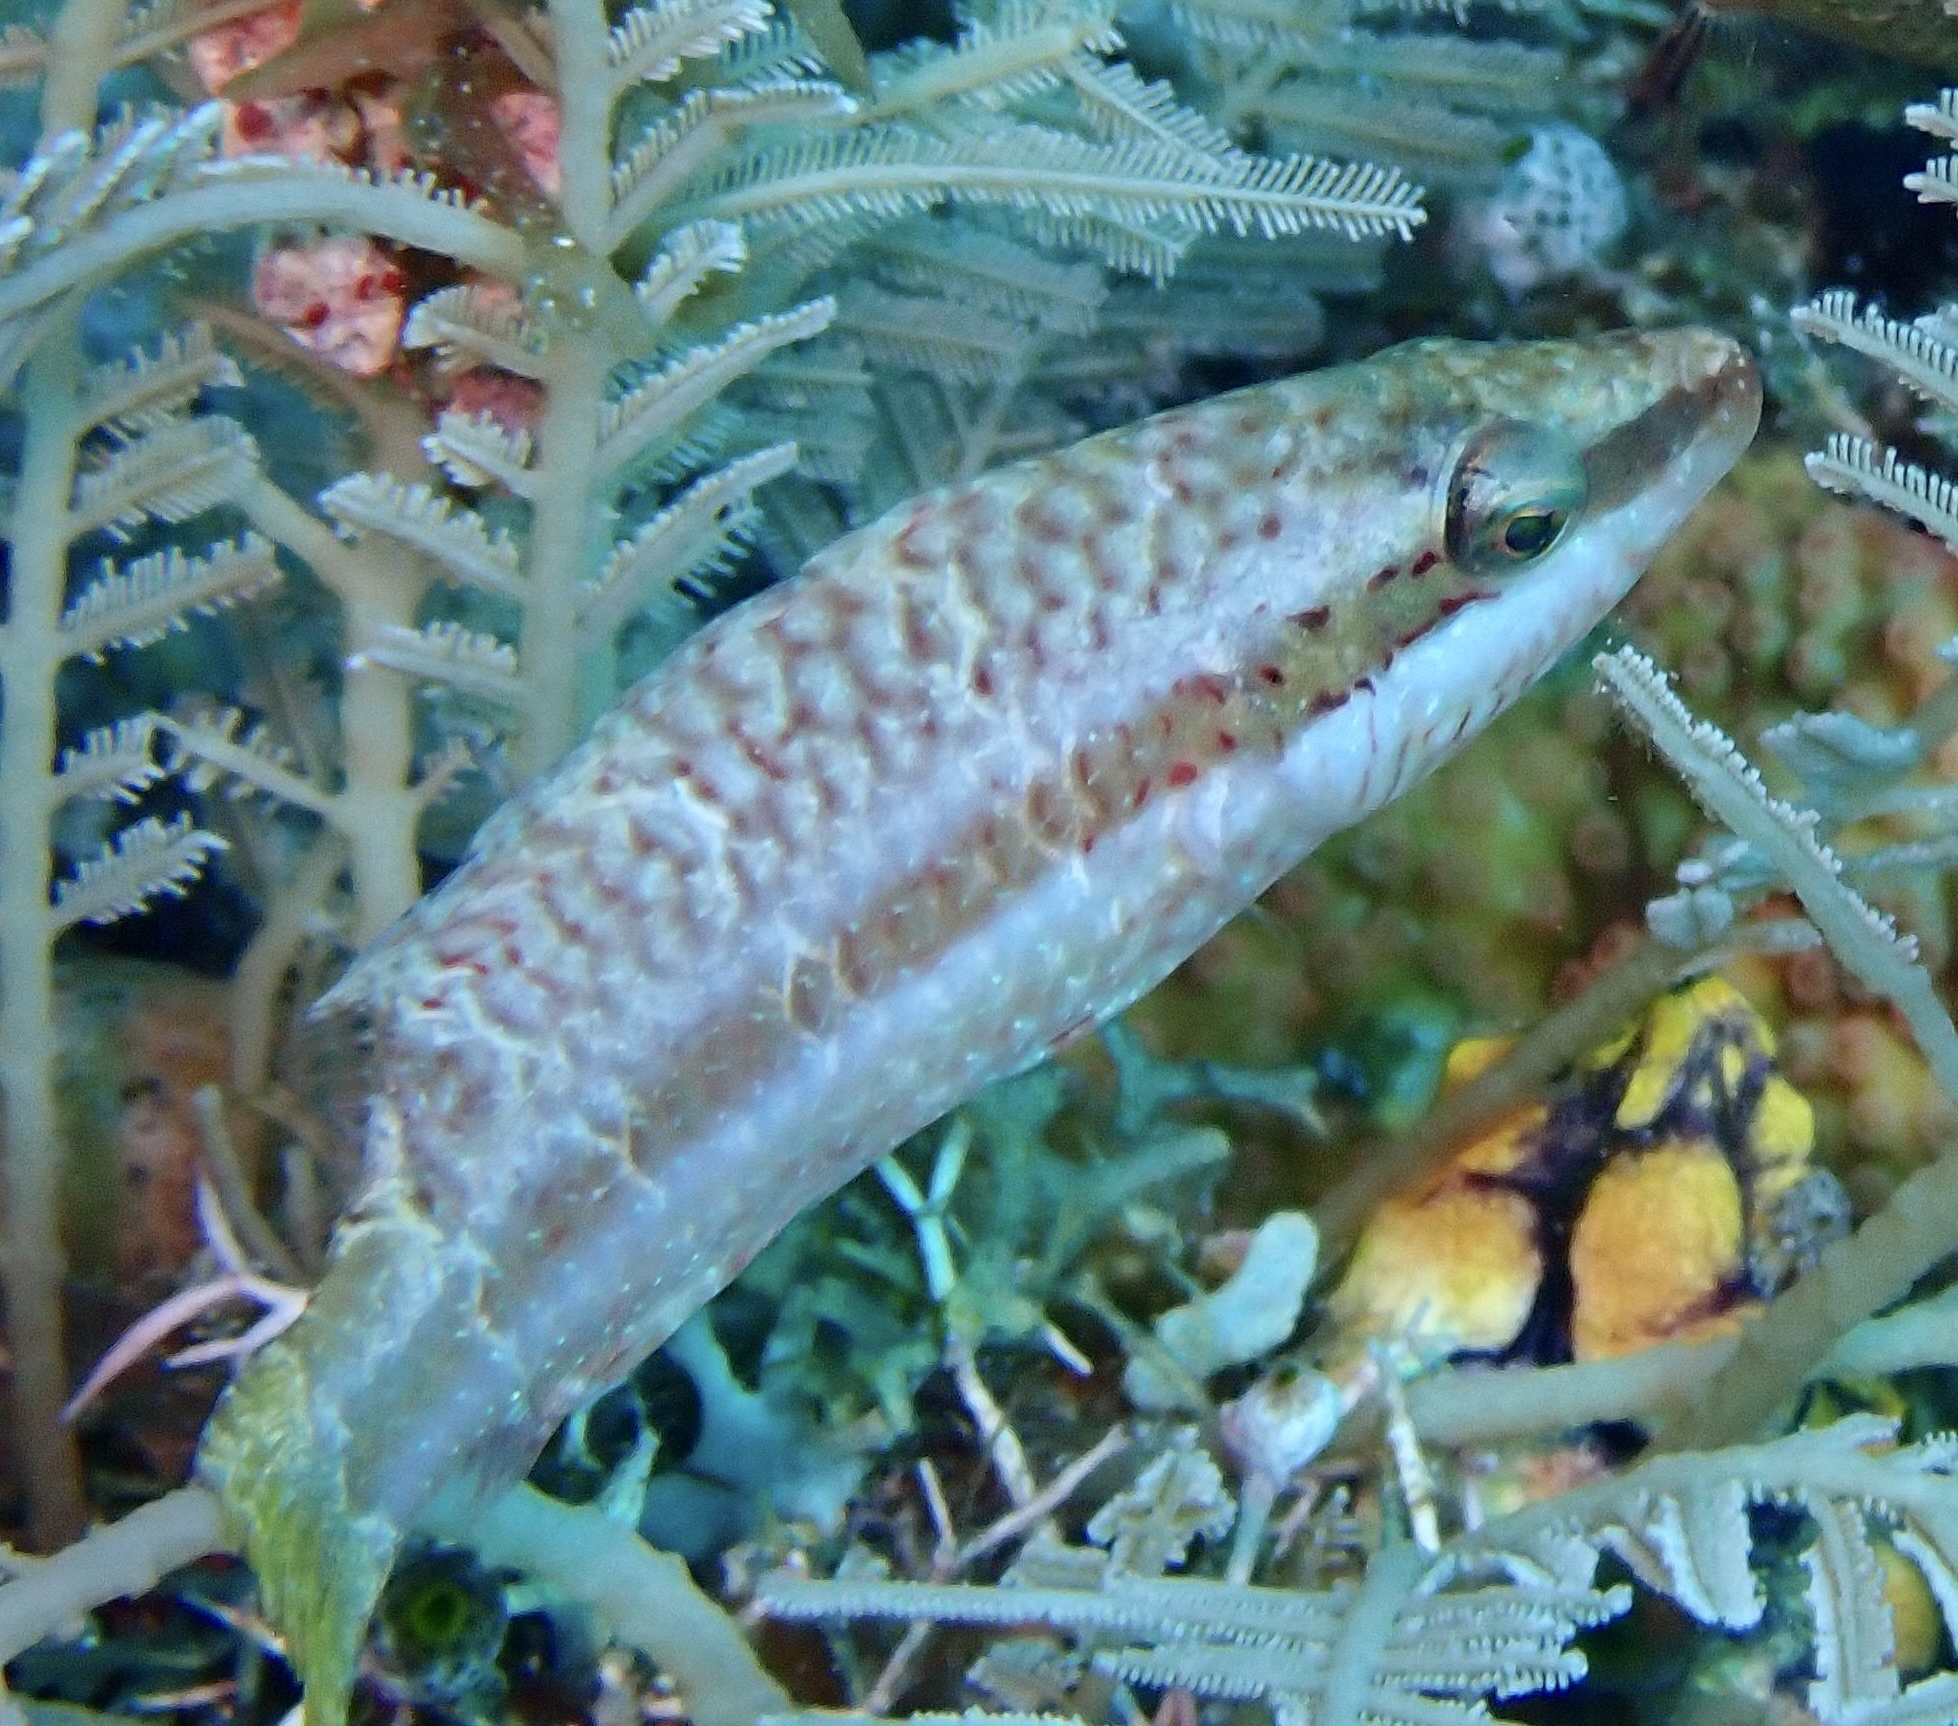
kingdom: Animalia
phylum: Chordata
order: Perciformes
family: Labridae
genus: Oxycheilinus
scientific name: Oxycheilinus digramma
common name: Bandcheek wrasse
